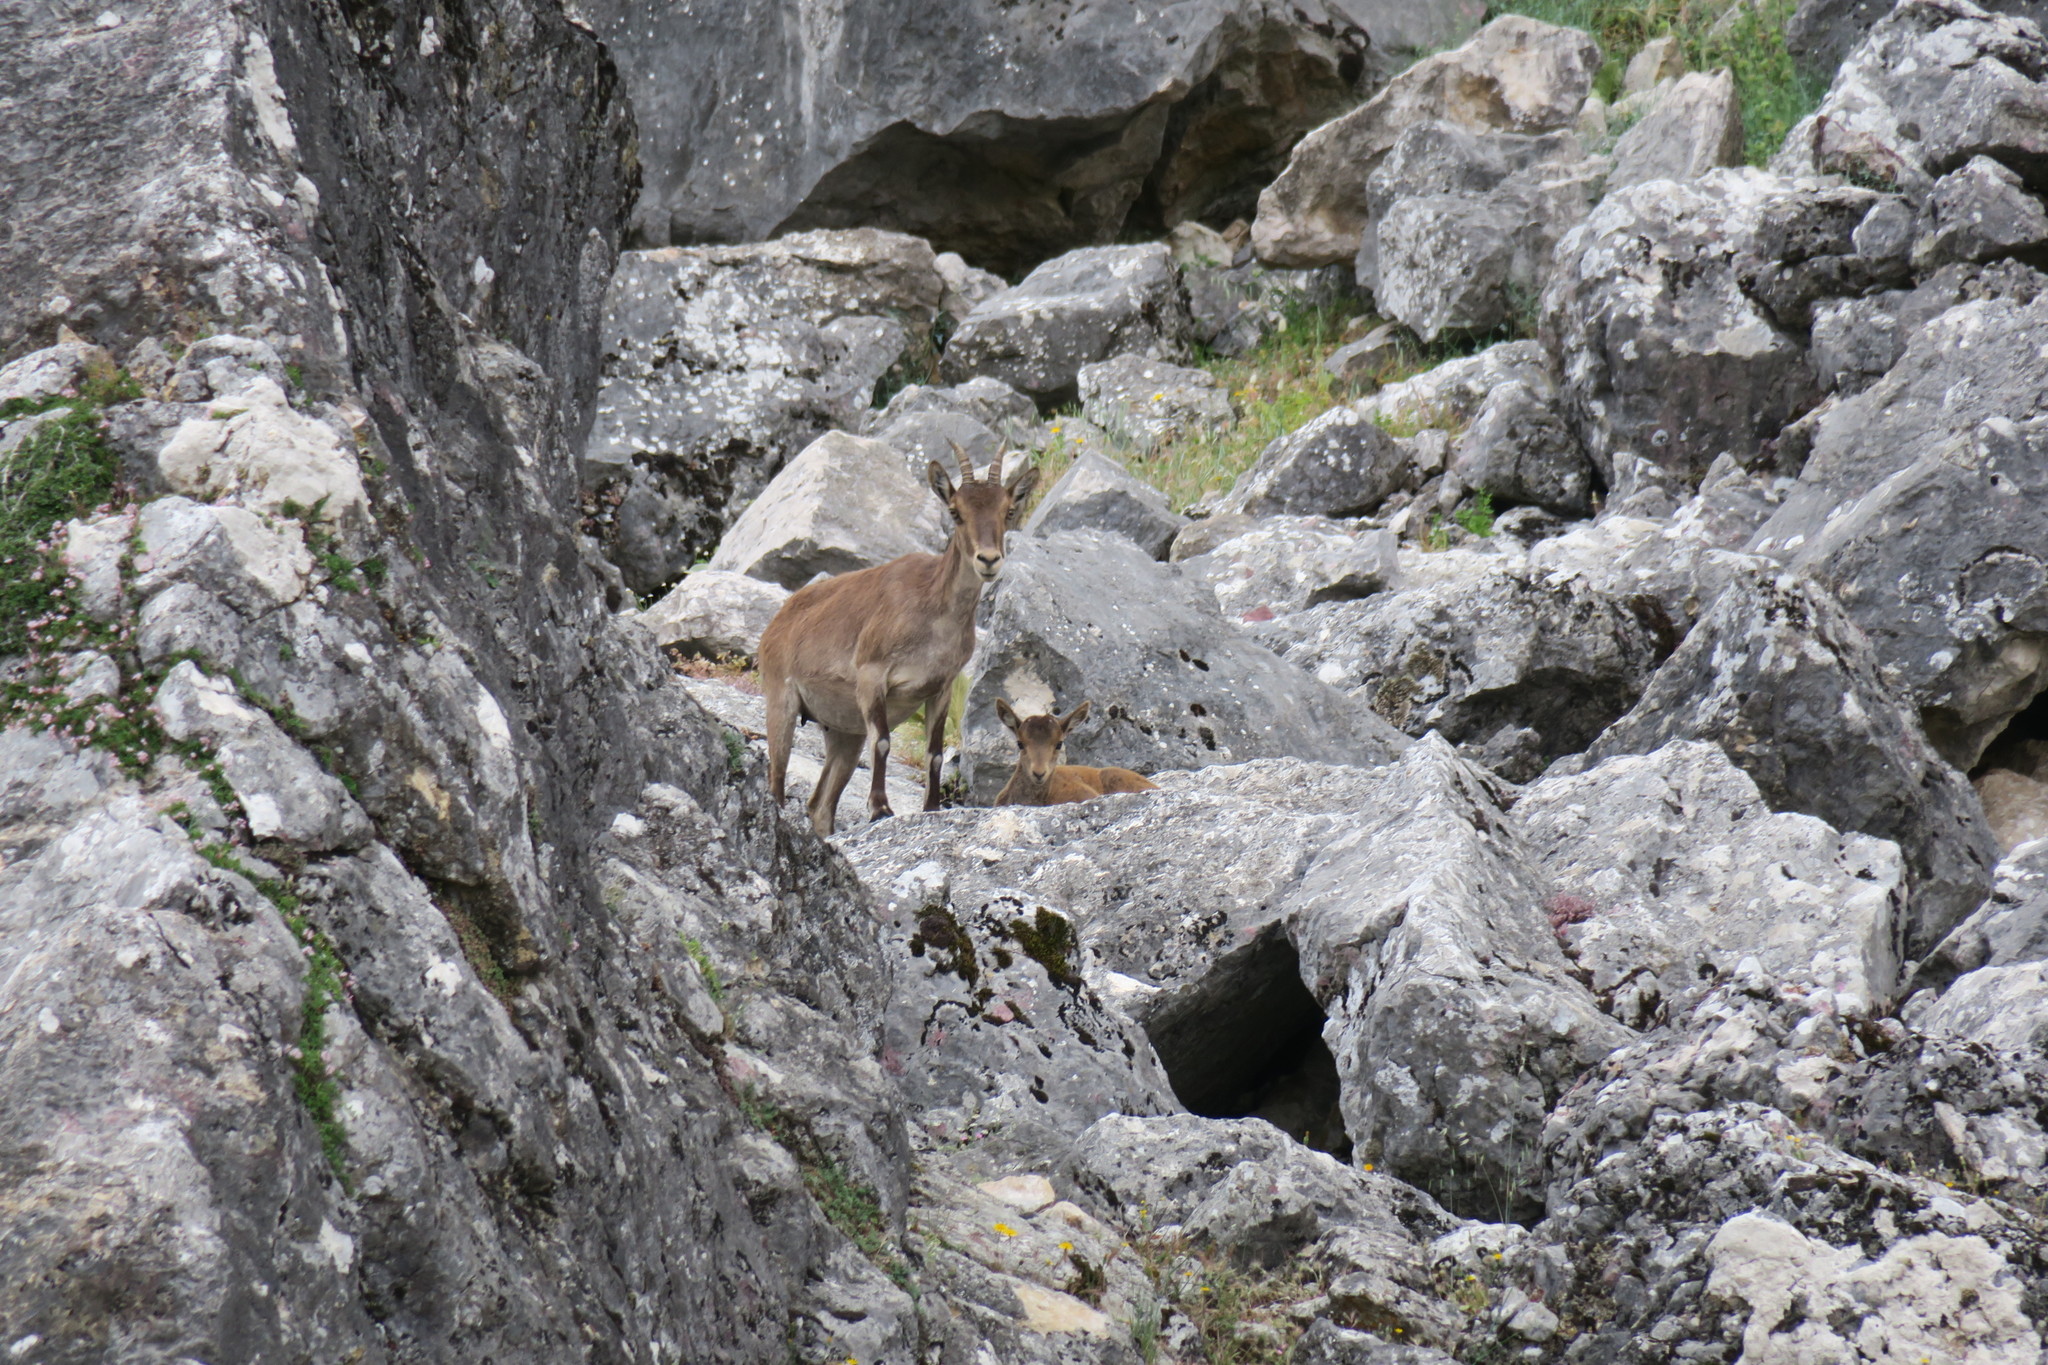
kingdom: Animalia
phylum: Chordata
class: Mammalia
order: Artiodactyla
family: Bovidae
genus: Capra
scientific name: Capra pyrenaica
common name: Spanish ibex
